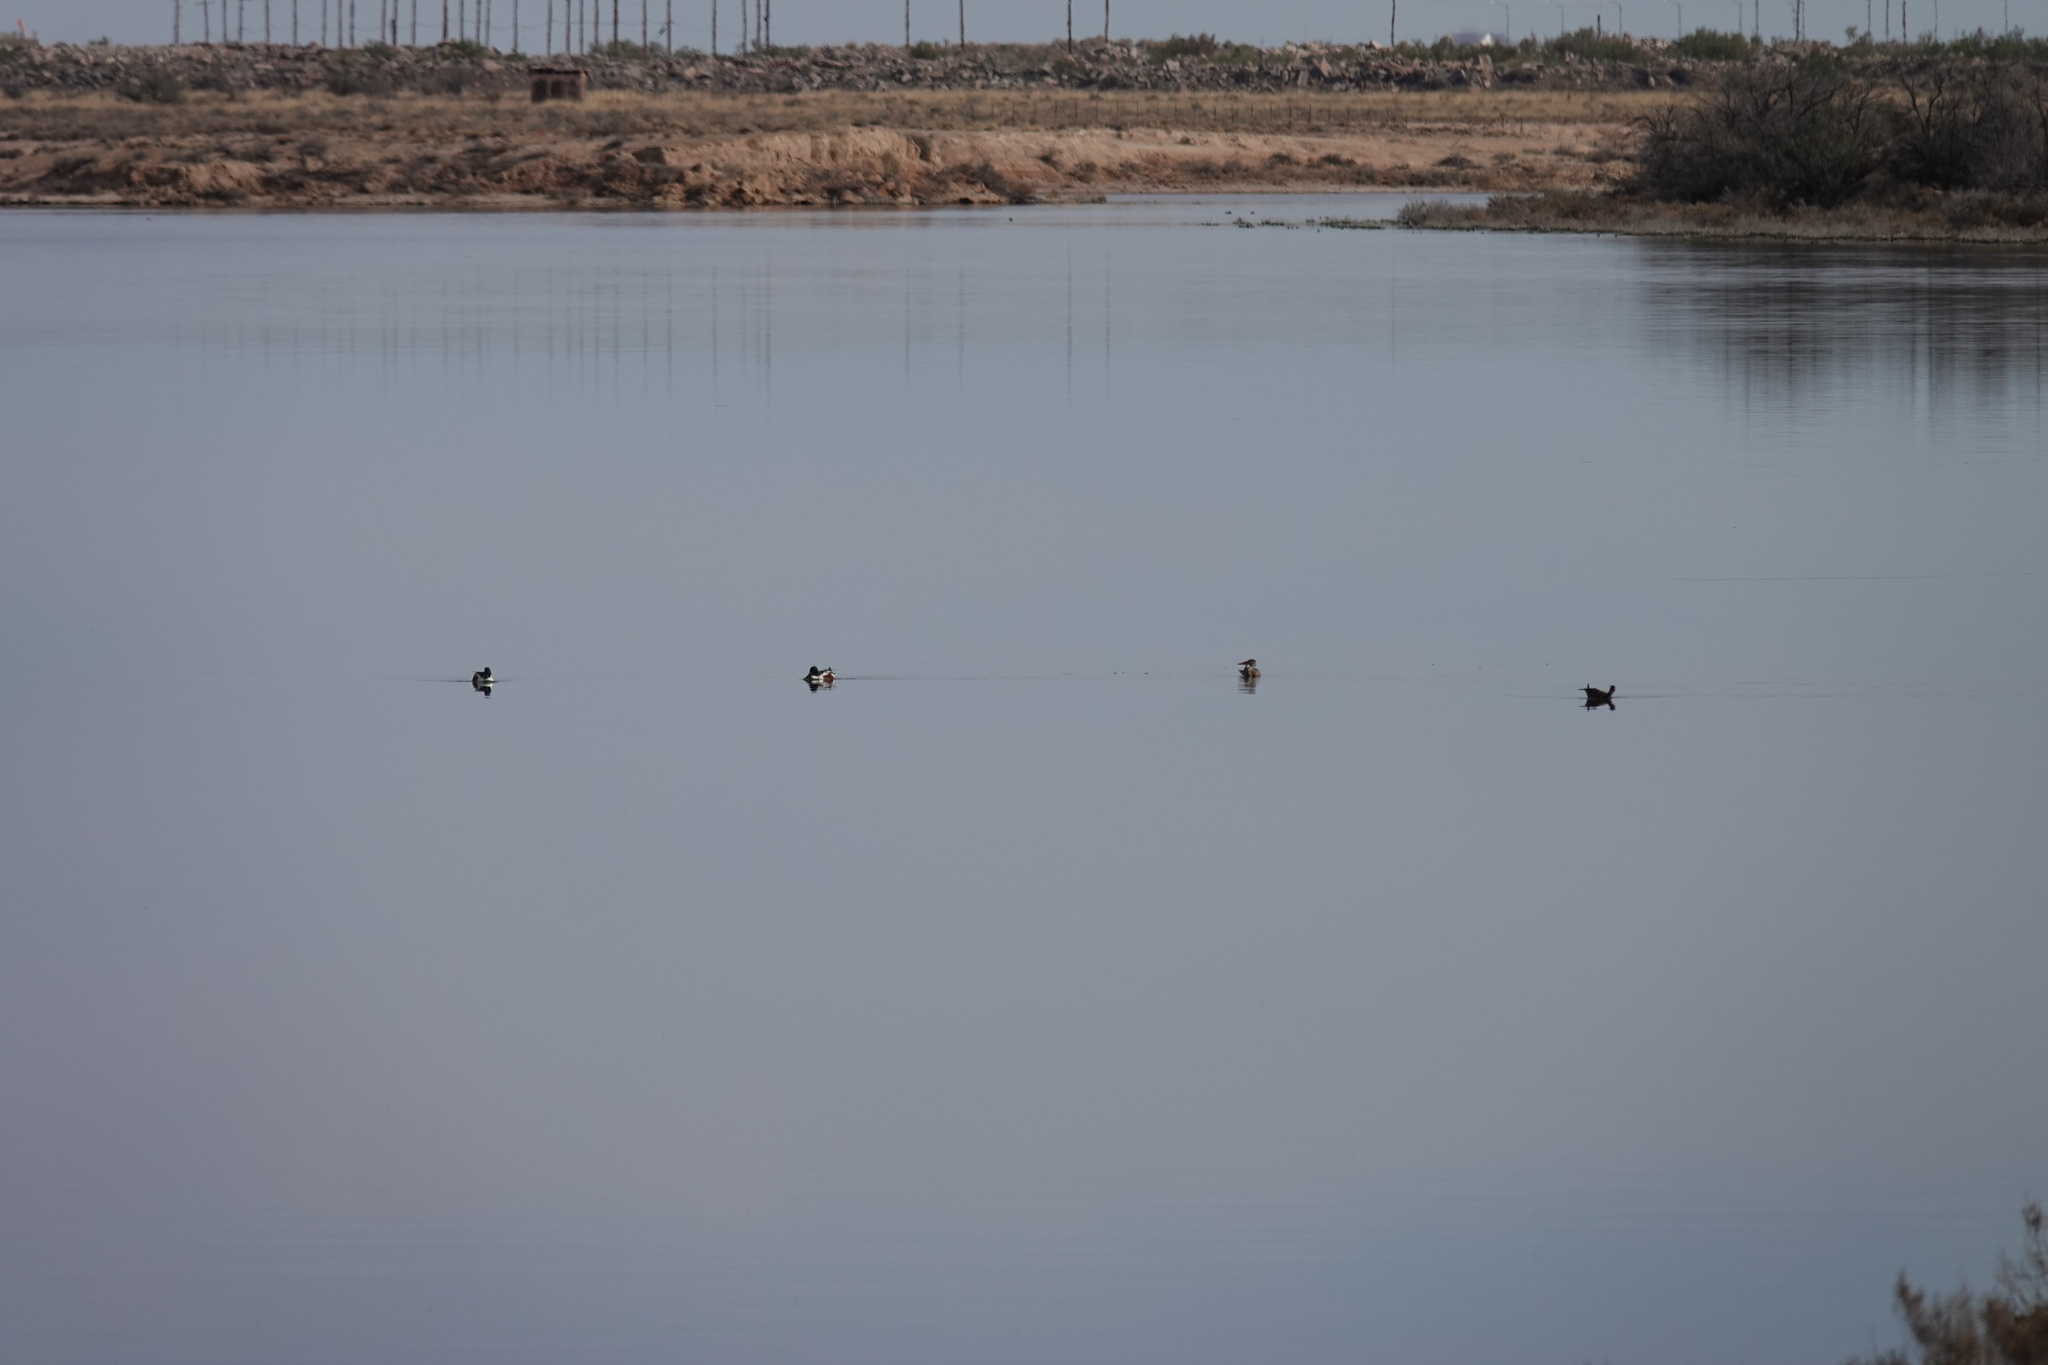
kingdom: Animalia
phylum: Chordata
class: Aves
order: Anseriformes
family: Anatidae
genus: Spatula
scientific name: Spatula clypeata
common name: Northern shoveler
